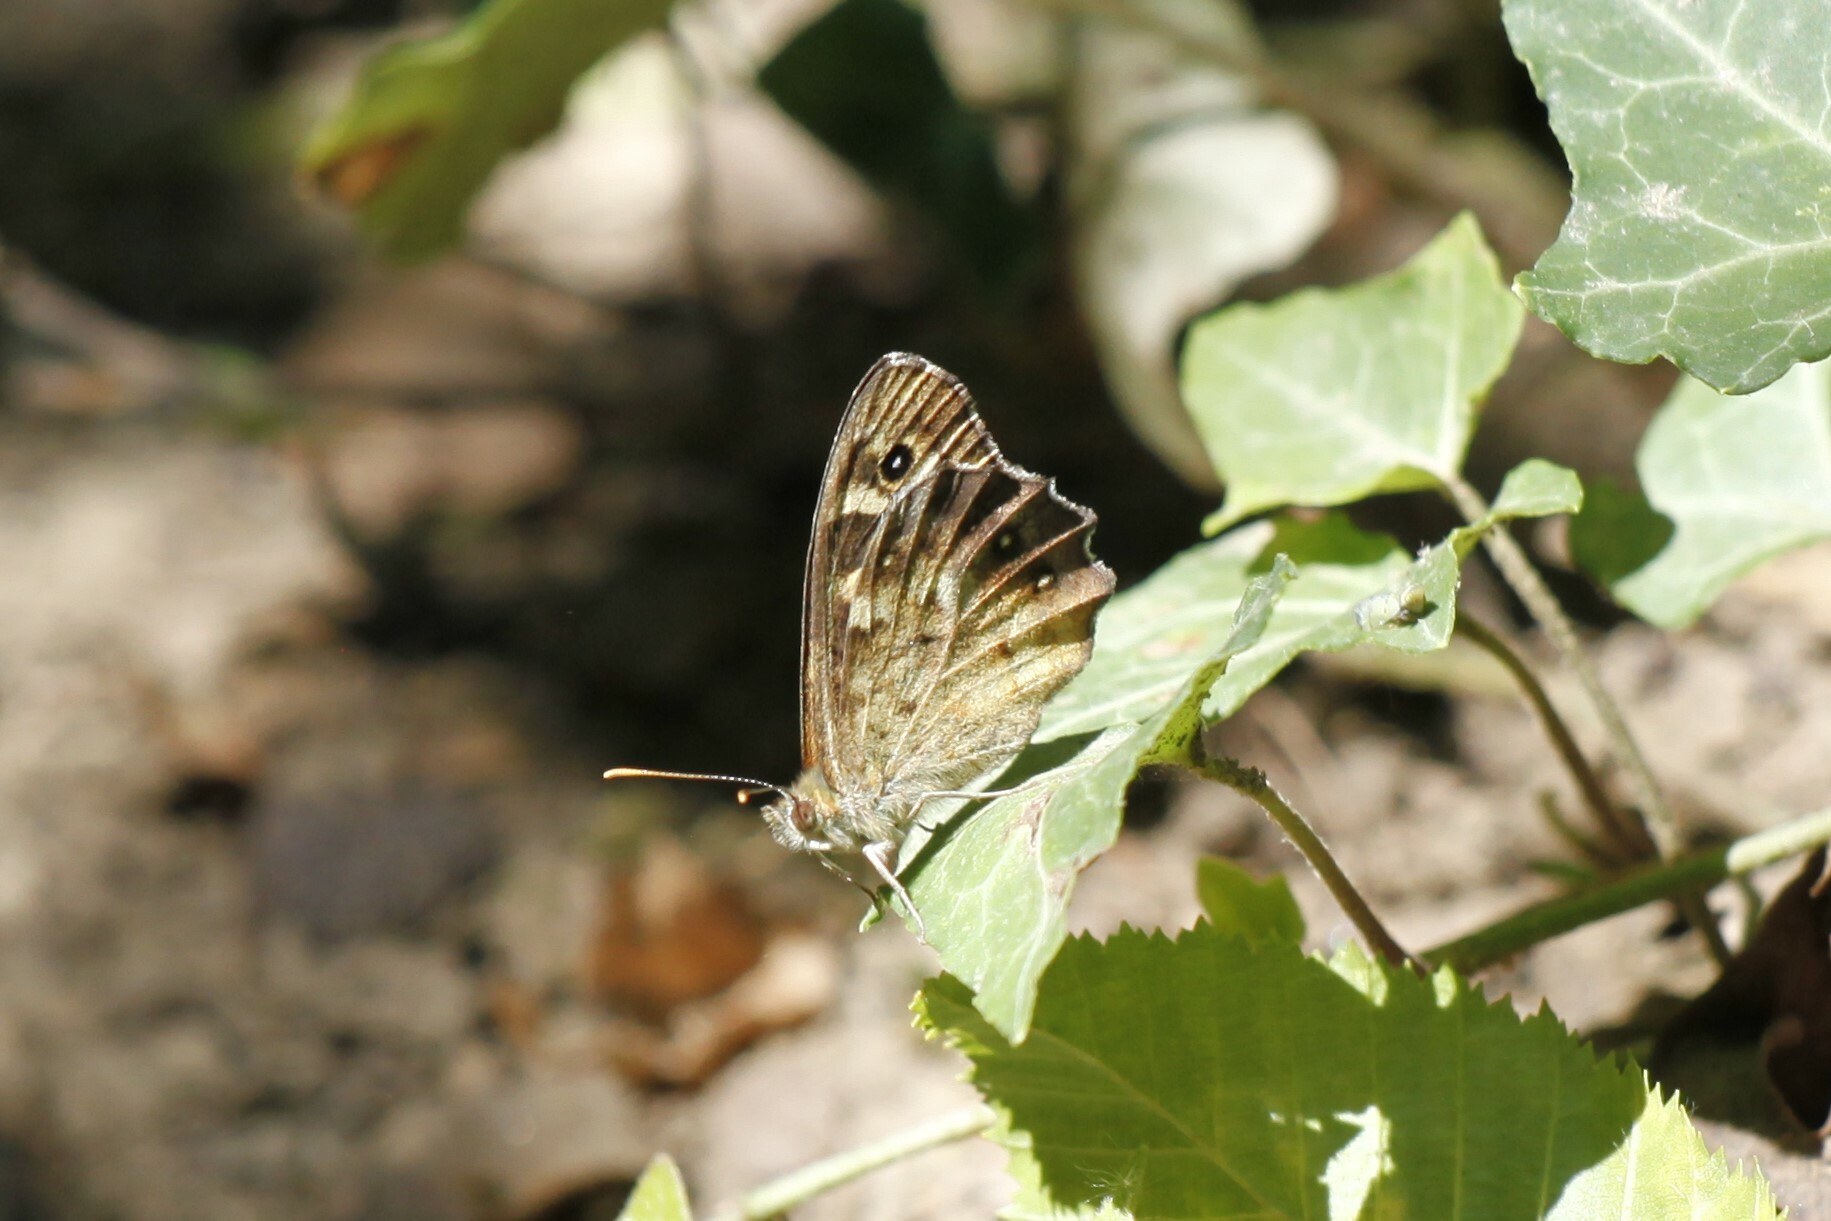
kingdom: Animalia
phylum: Arthropoda
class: Insecta
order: Lepidoptera
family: Nymphalidae
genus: Pararge
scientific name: Pararge aegeria
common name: Speckled wood
